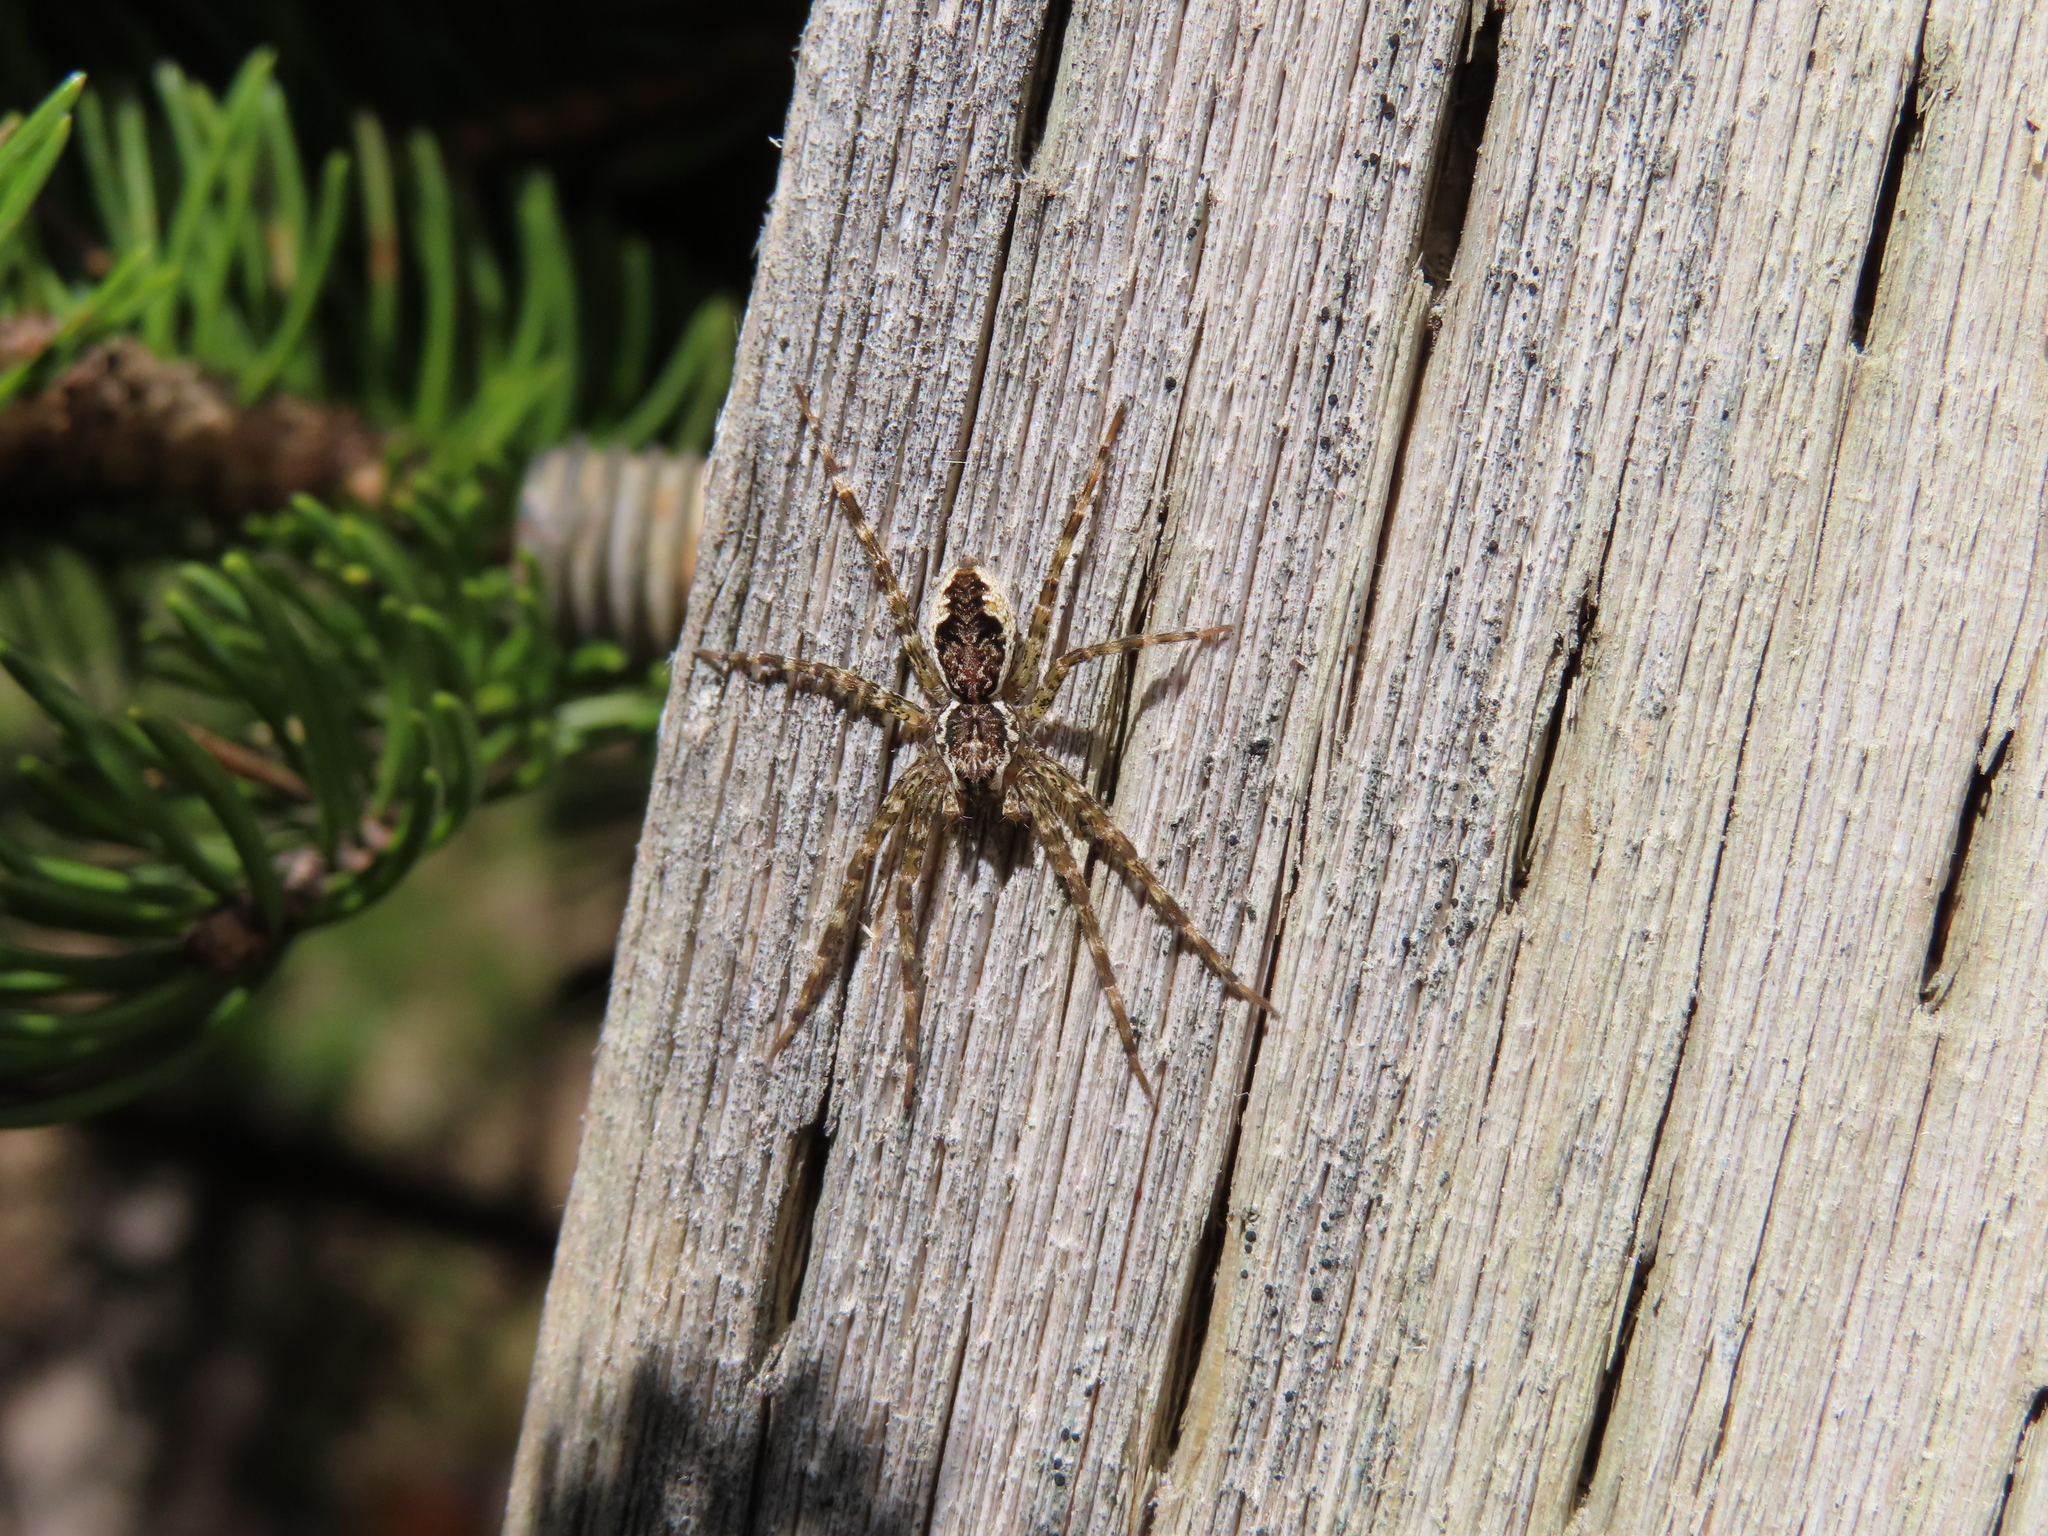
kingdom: Animalia
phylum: Arthropoda
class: Arachnida
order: Araneae
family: Pisauridae
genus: Dolomedes
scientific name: Dolomedes tenebrosus
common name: Dark fishing spider
